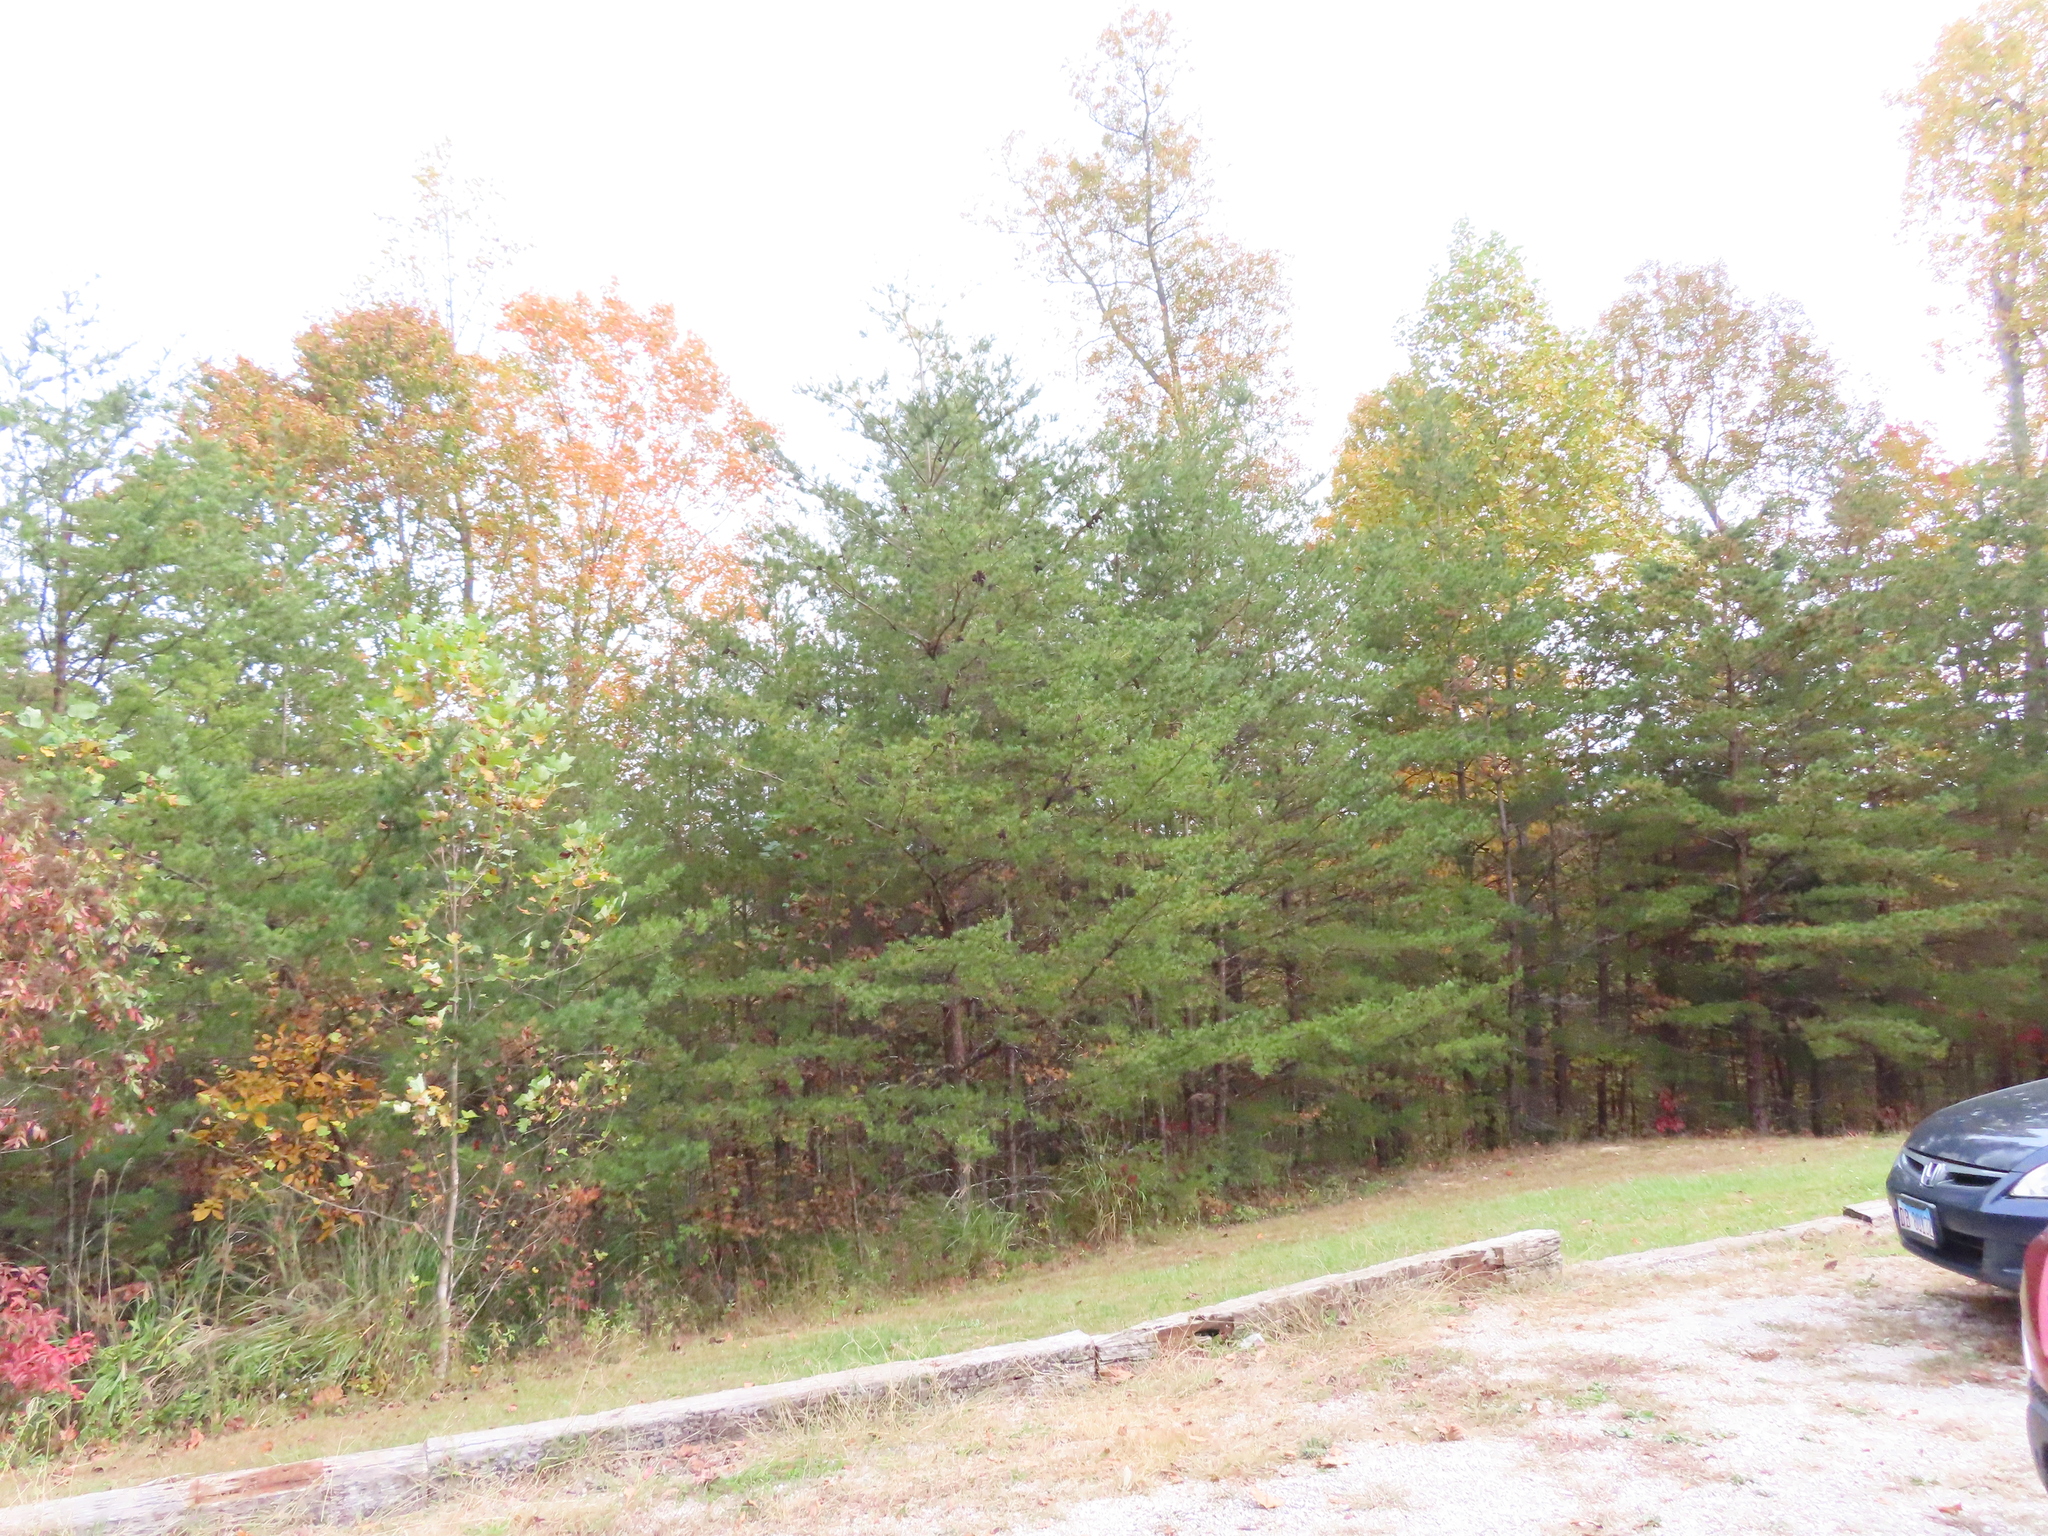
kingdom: Plantae
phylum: Tracheophyta
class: Pinopsida
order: Pinales
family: Pinaceae
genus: Pinus
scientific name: Pinus strobus
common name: Weymouth pine
